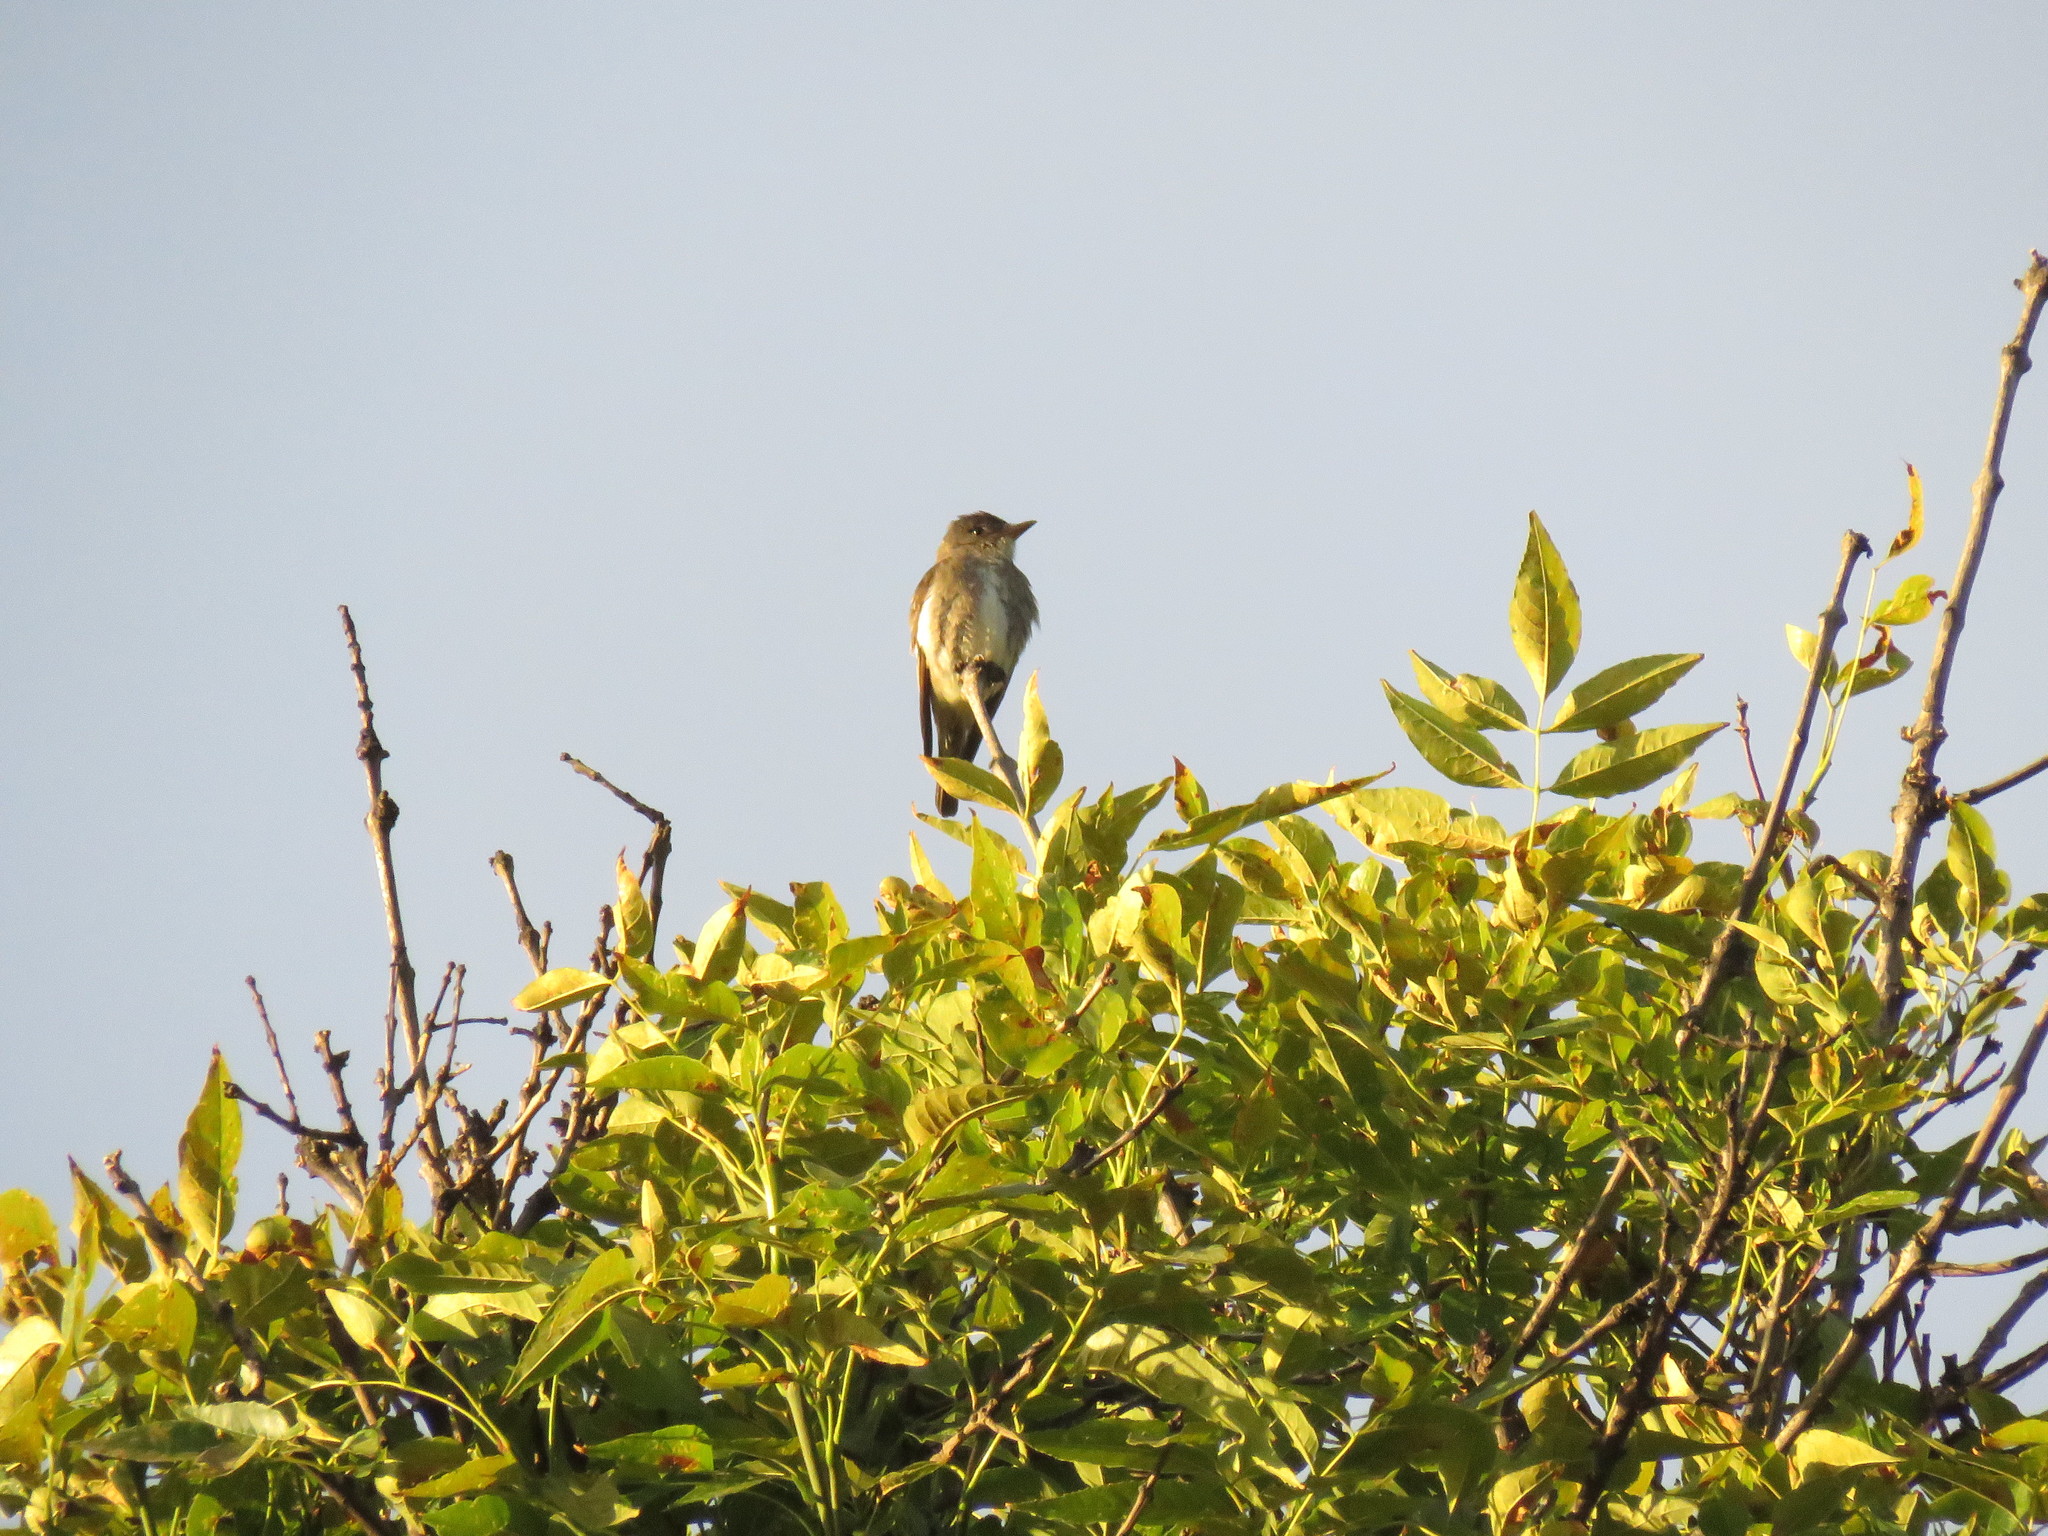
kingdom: Animalia
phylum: Chordata
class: Aves
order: Passeriformes
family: Tyrannidae
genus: Contopus
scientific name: Contopus cooperi
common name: Olive-sided flycatcher
